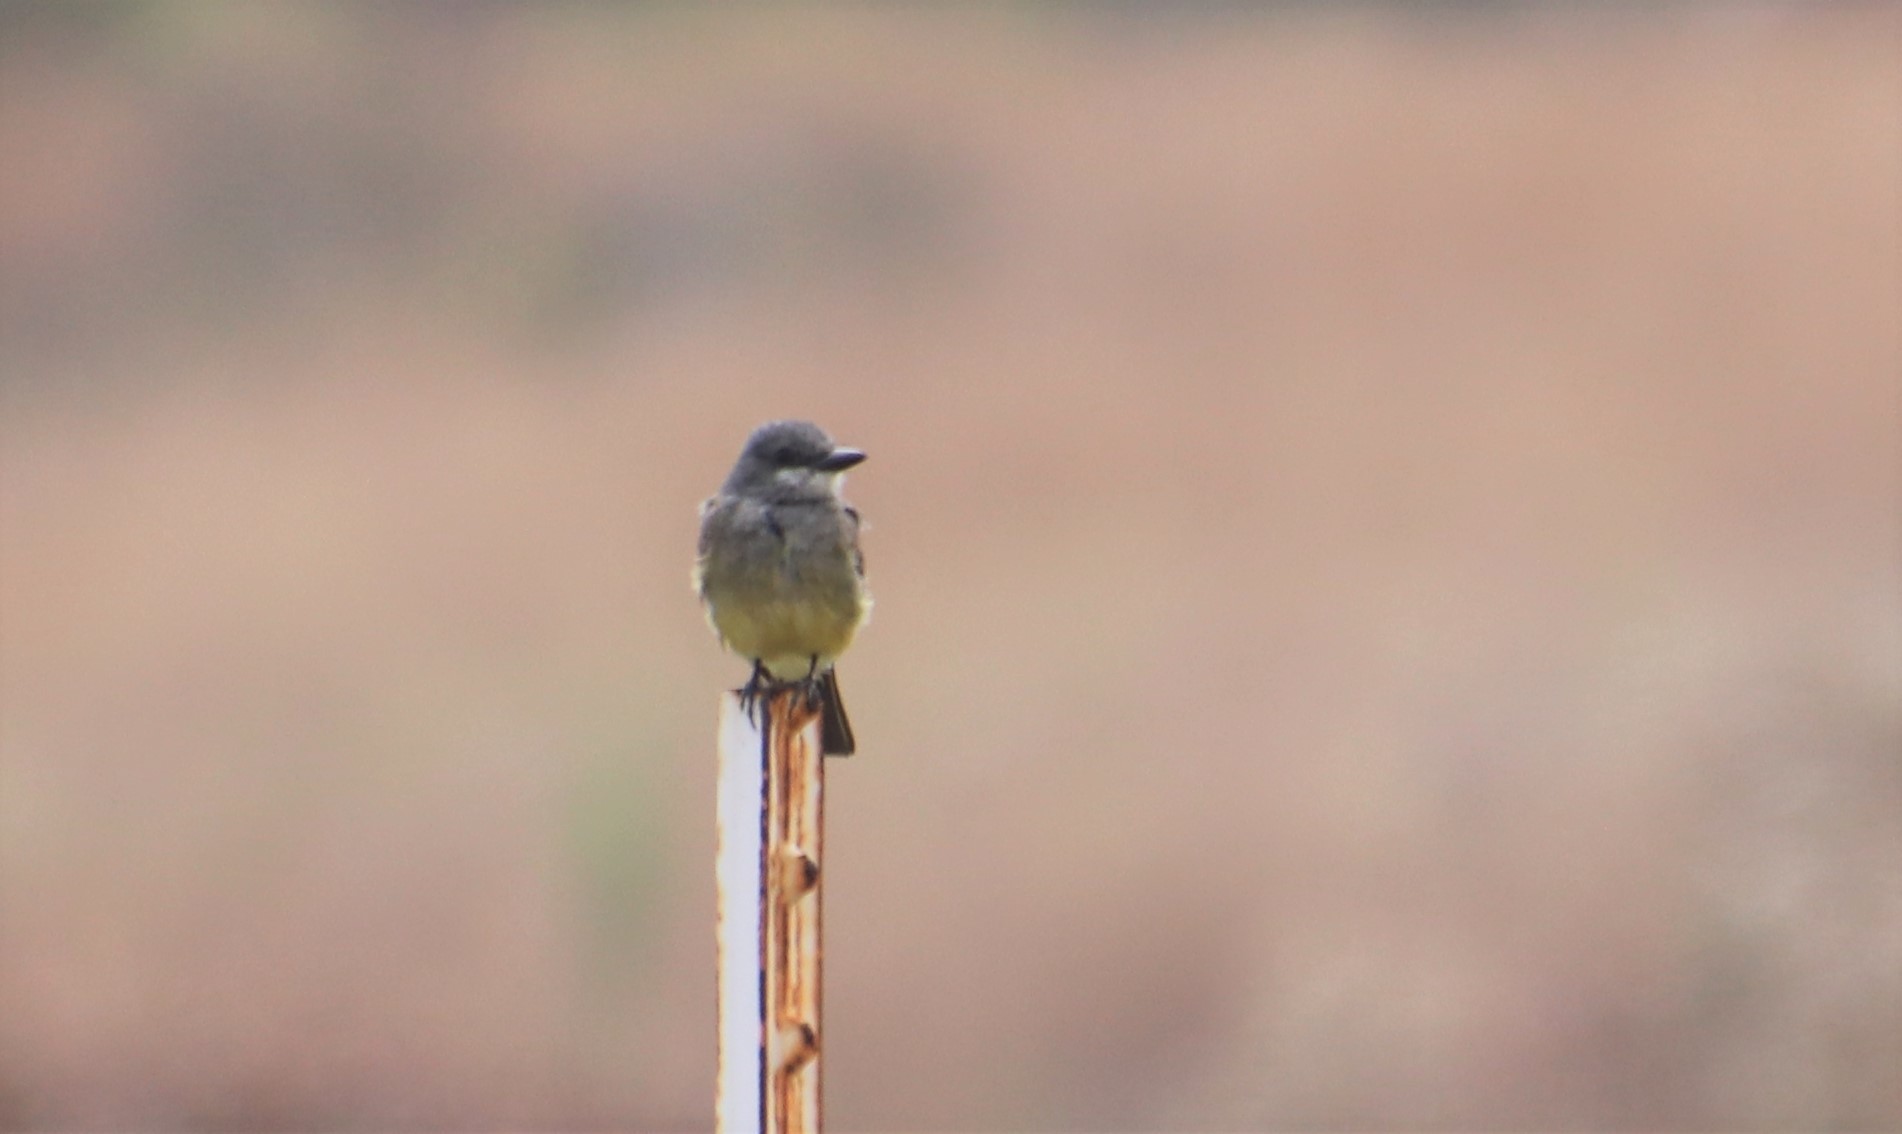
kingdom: Animalia
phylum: Chordata
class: Aves
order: Passeriformes
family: Tyrannidae
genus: Tyrannus
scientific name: Tyrannus vociferans
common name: Cassin's kingbird
